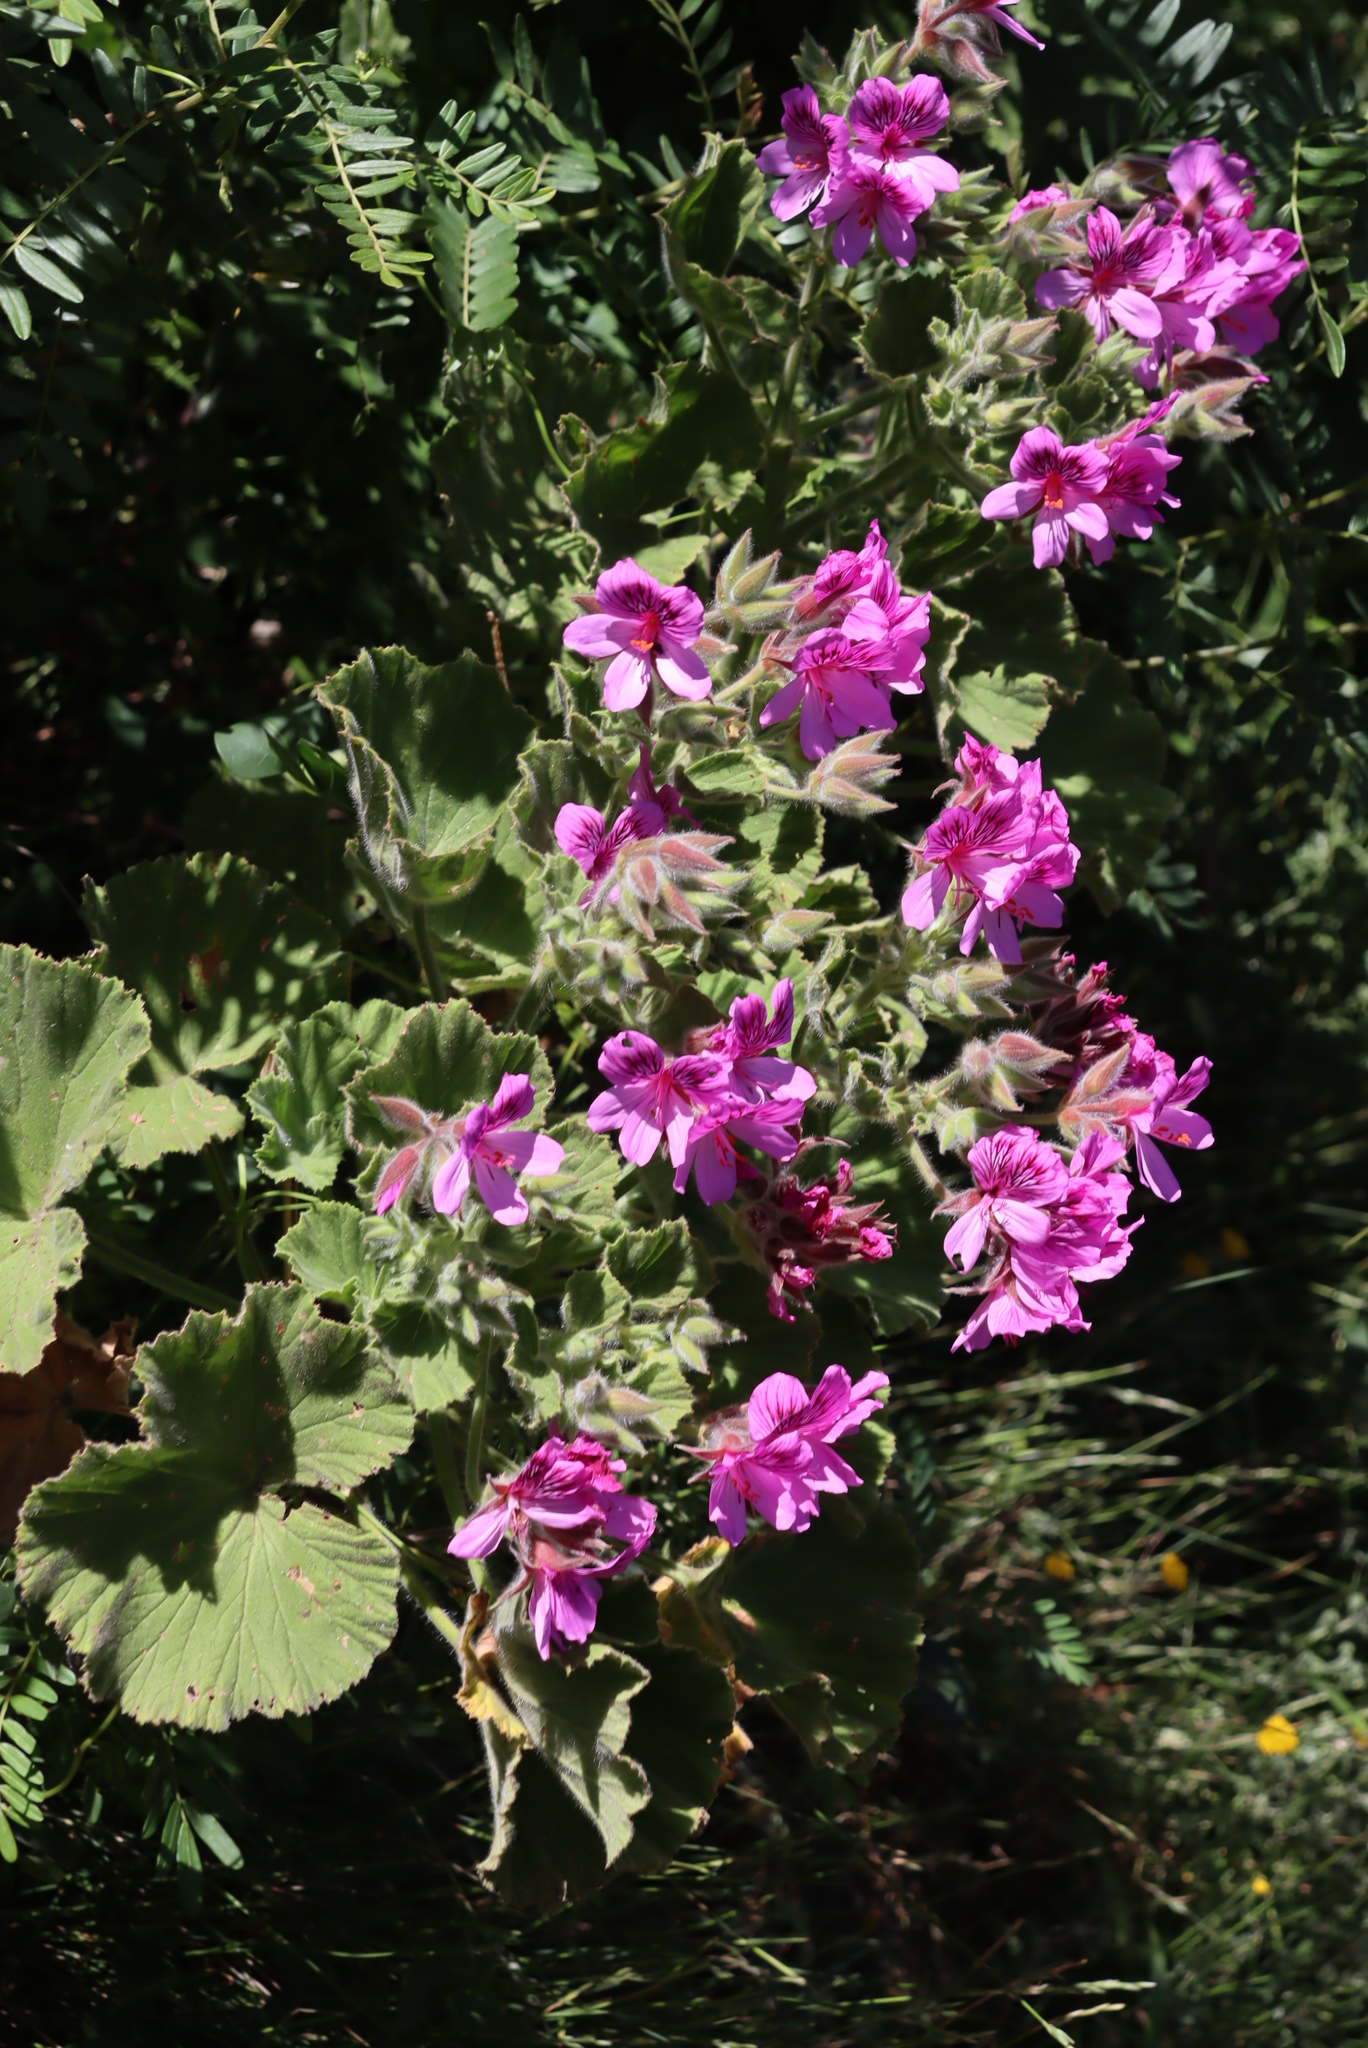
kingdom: Plantae
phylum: Tracheophyta
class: Magnoliopsida
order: Geraniales
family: Geraniaceae
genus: Pelargonium
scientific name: Pelargonium cucullatum
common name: Tree pelargonium
